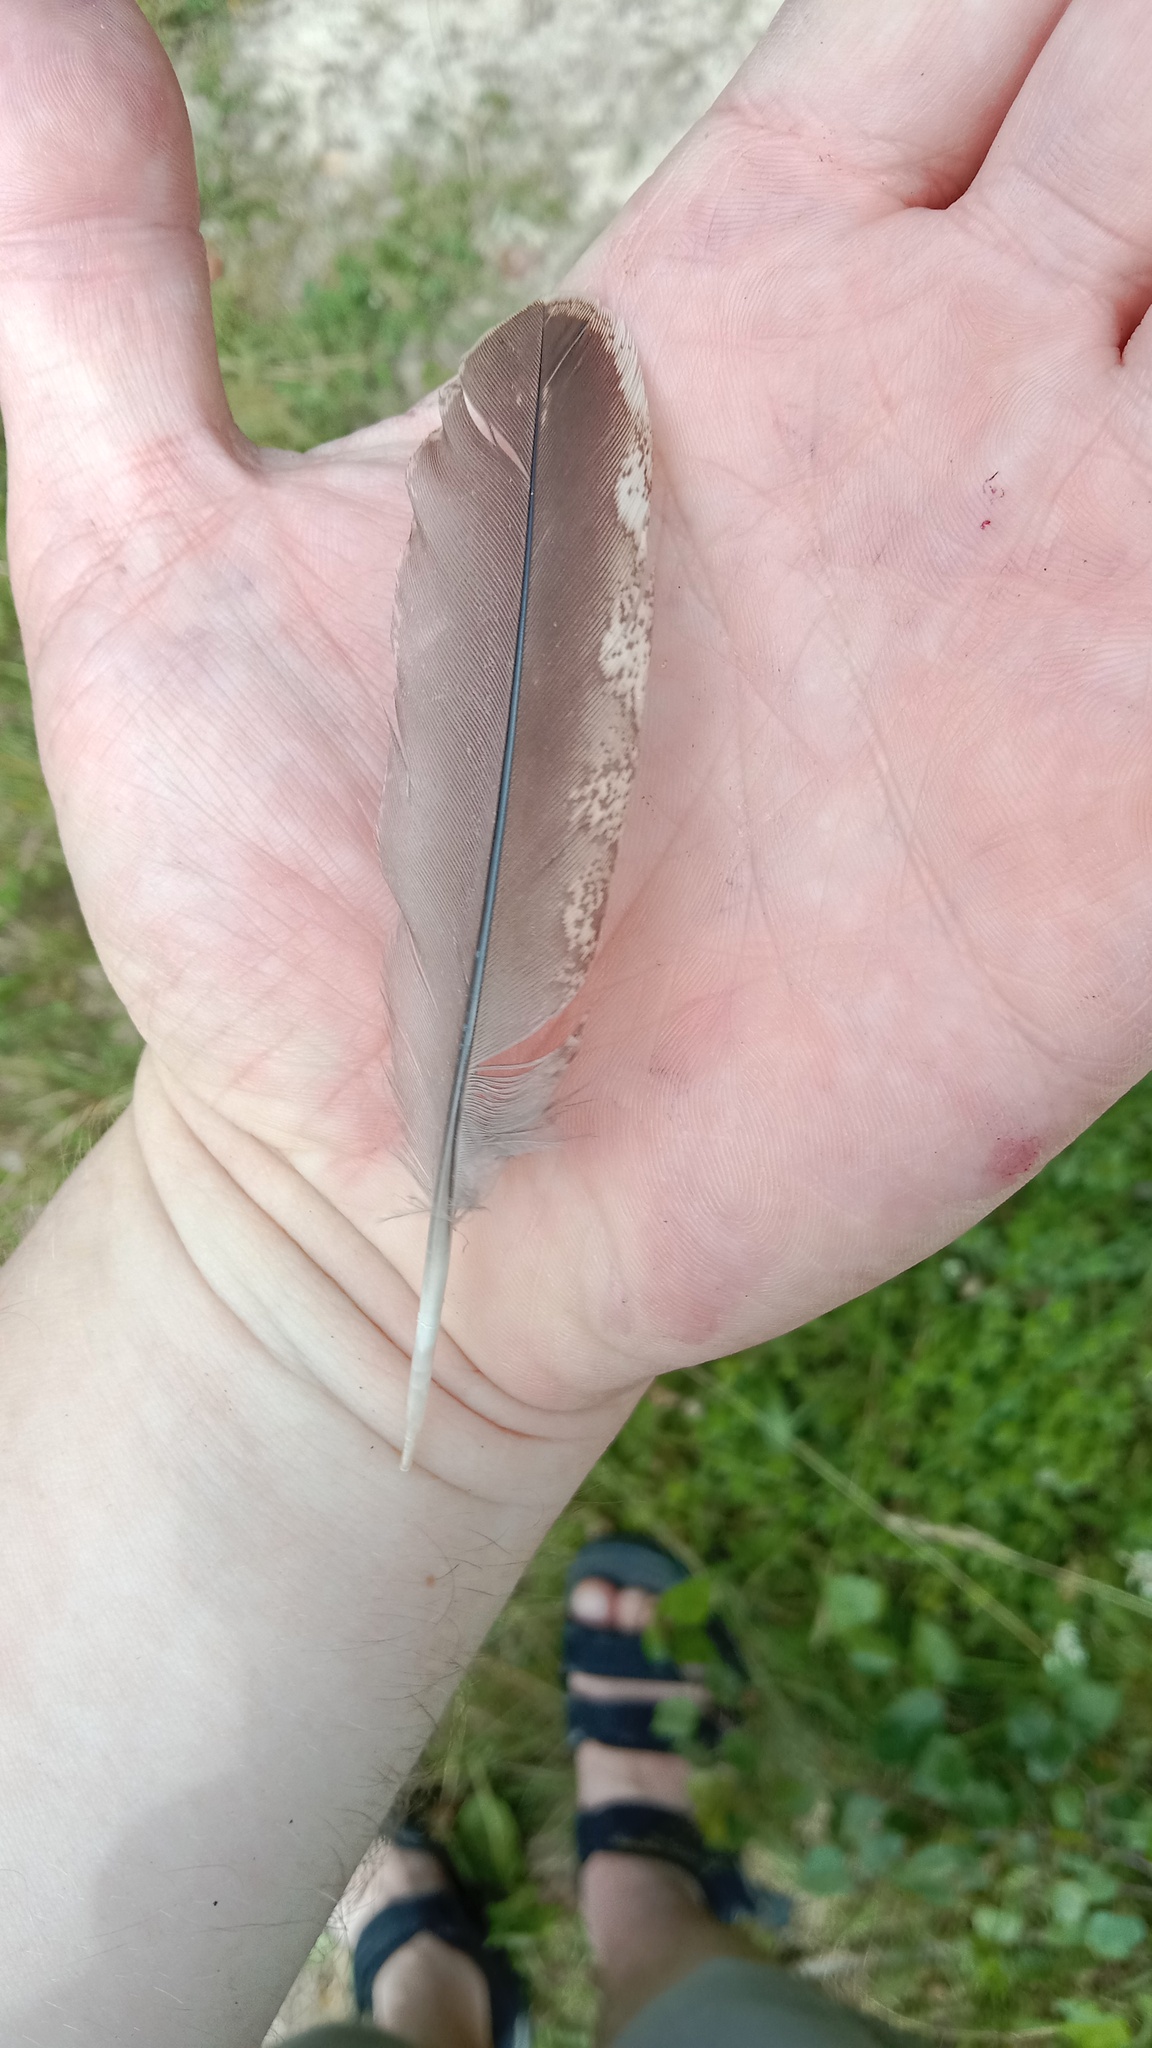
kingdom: Animalia
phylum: Chordata
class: Aves
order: Galliformes
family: Phasianidae
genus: Tetrastes
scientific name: Tetrastes bonasia
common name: Hazel grouse
